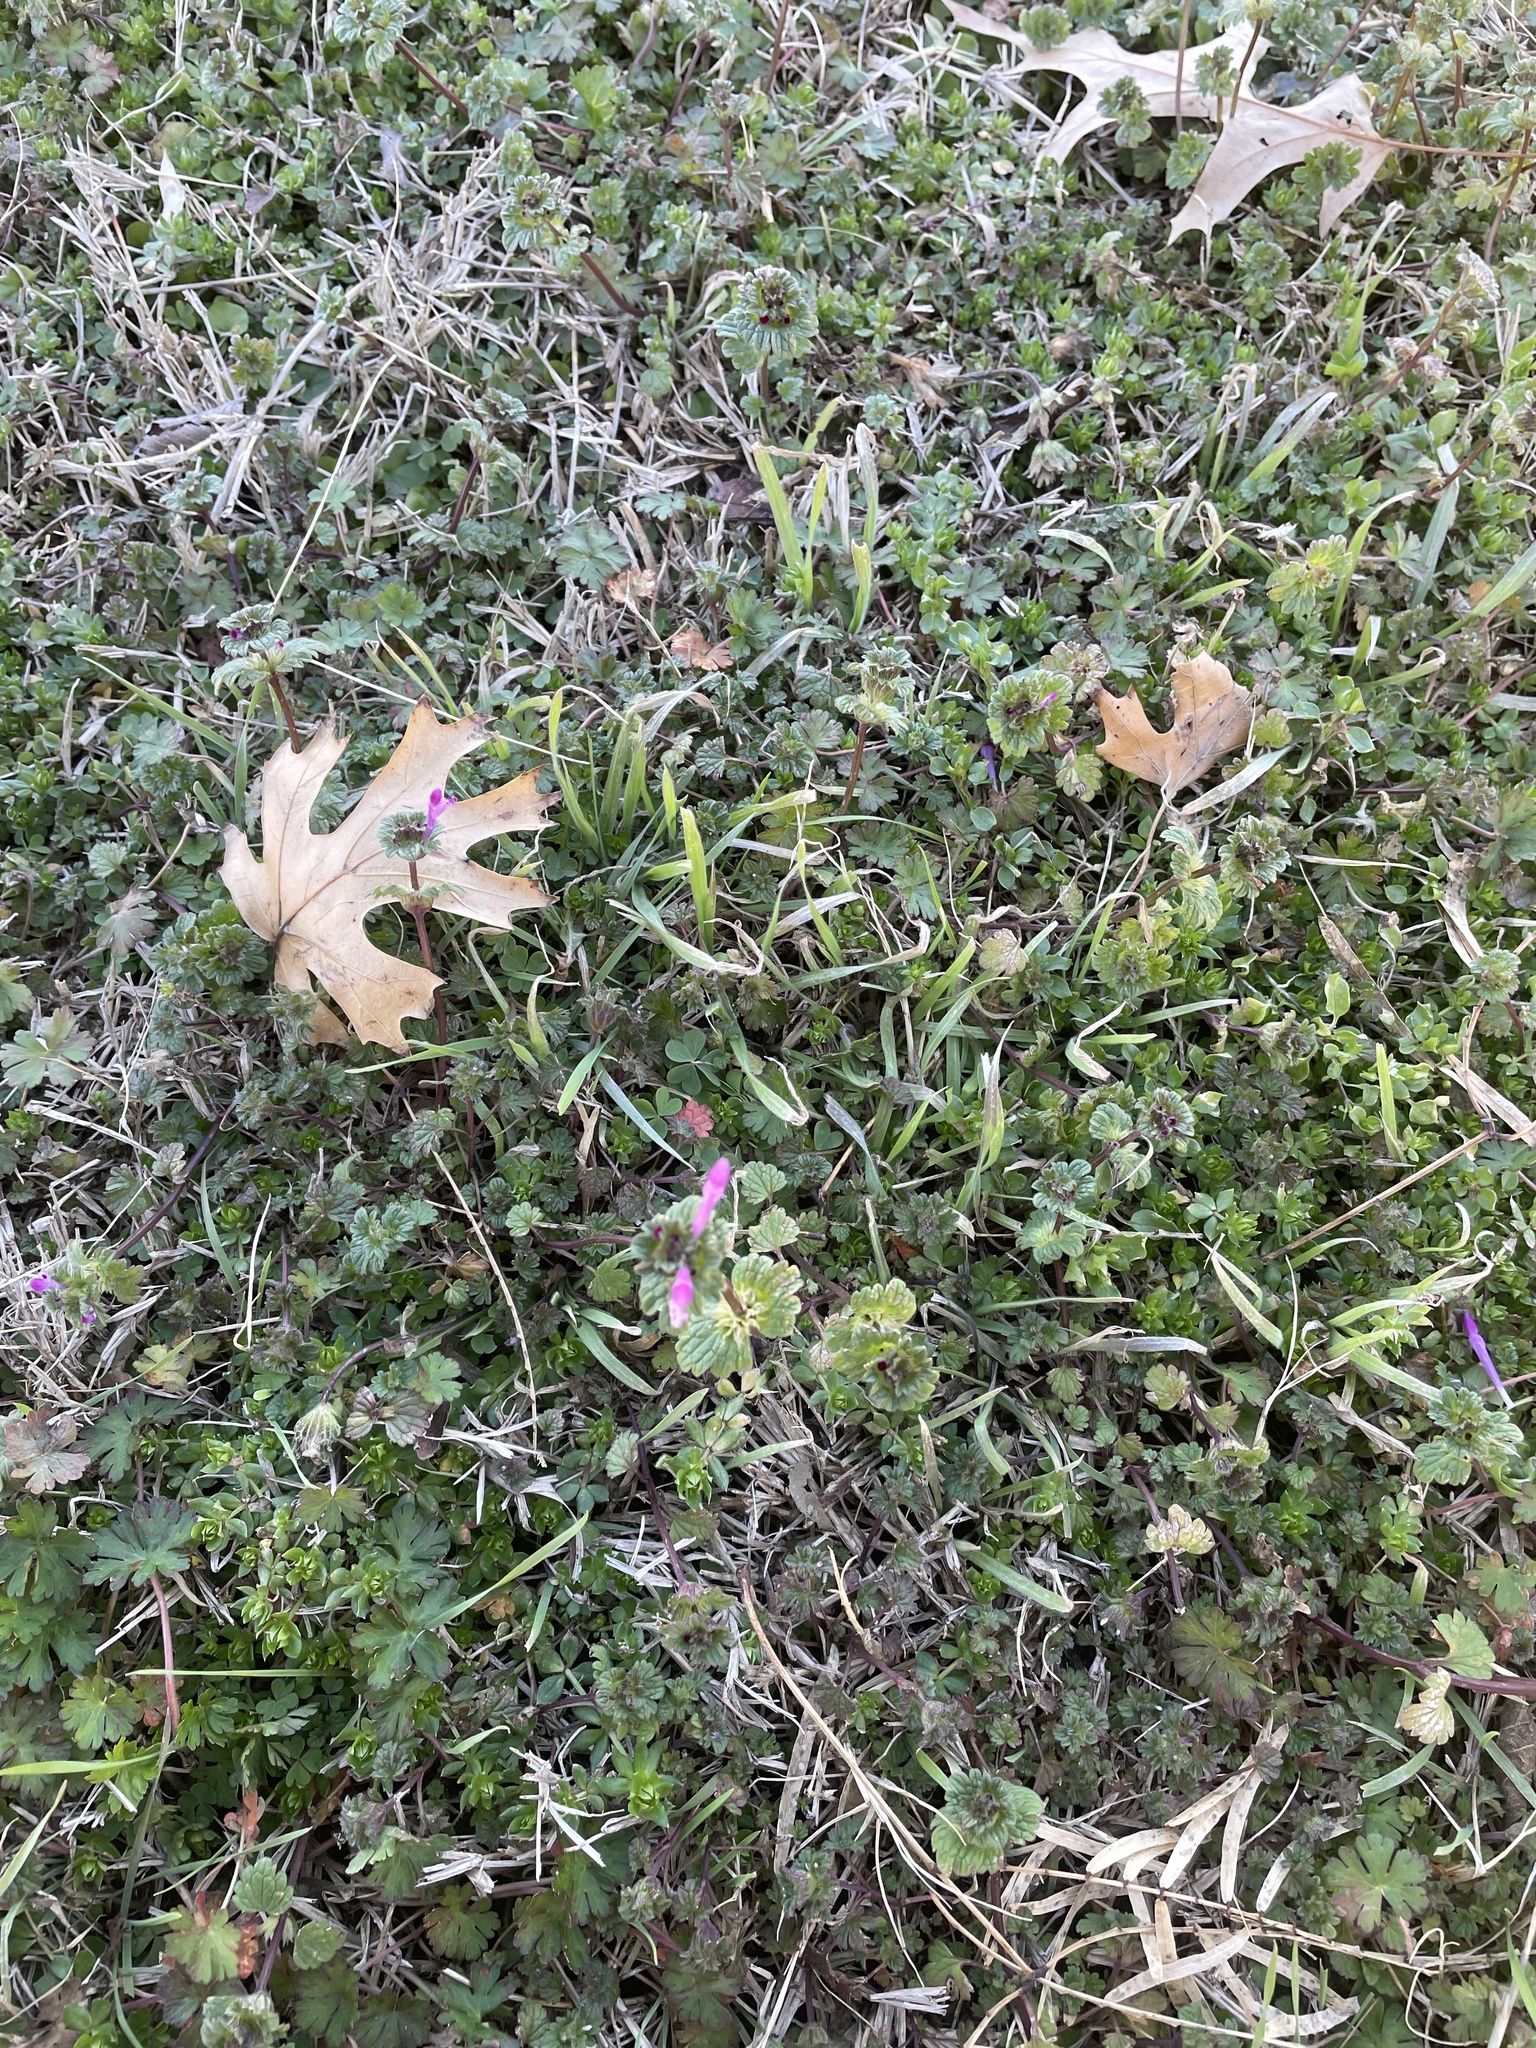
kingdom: Plantae
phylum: Tracheophyta
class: Magnoliopsida
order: Lamiales
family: Lamiaceae
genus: Lamium
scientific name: Lamium amplexicaule
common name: Henbit dead-nettle
